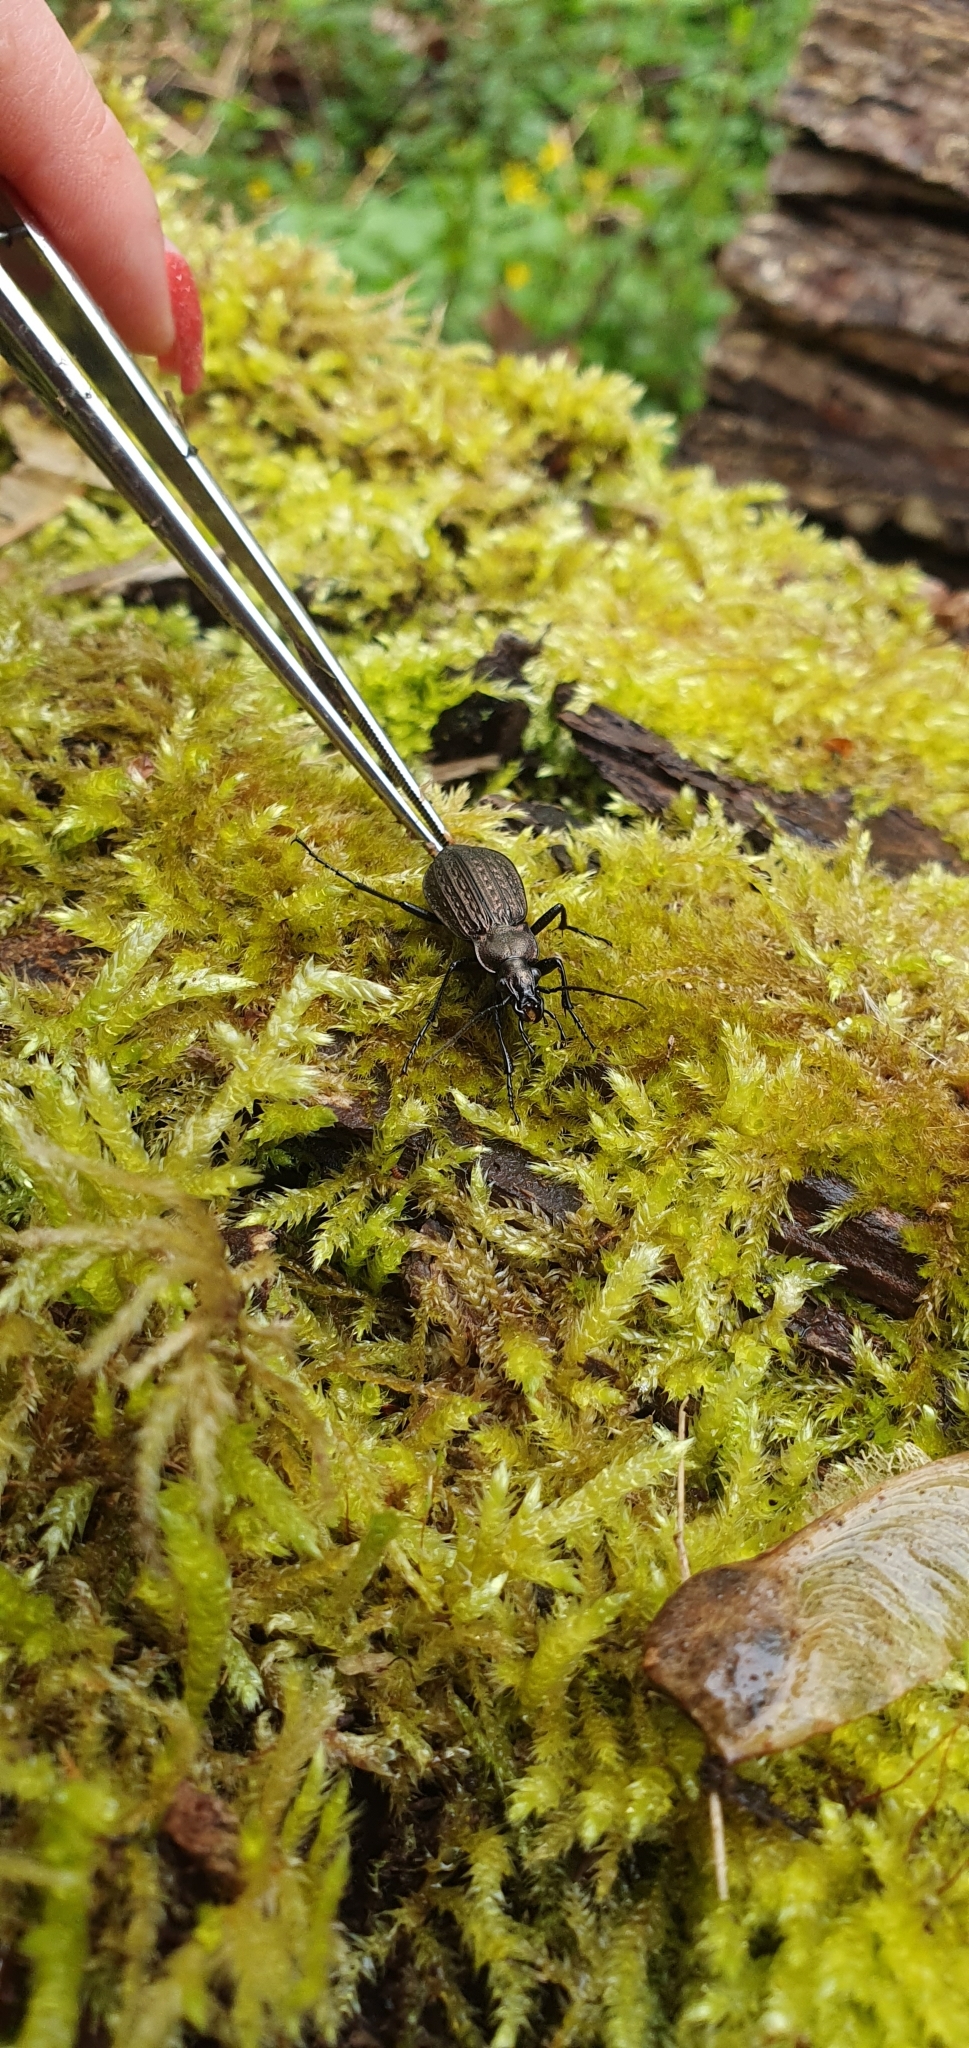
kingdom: Animalia
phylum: Arthropoda
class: Insecta
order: Coleoptera
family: Carabidae
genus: Carabus
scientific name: Carabus granulatus
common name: Granulate ground beetle
